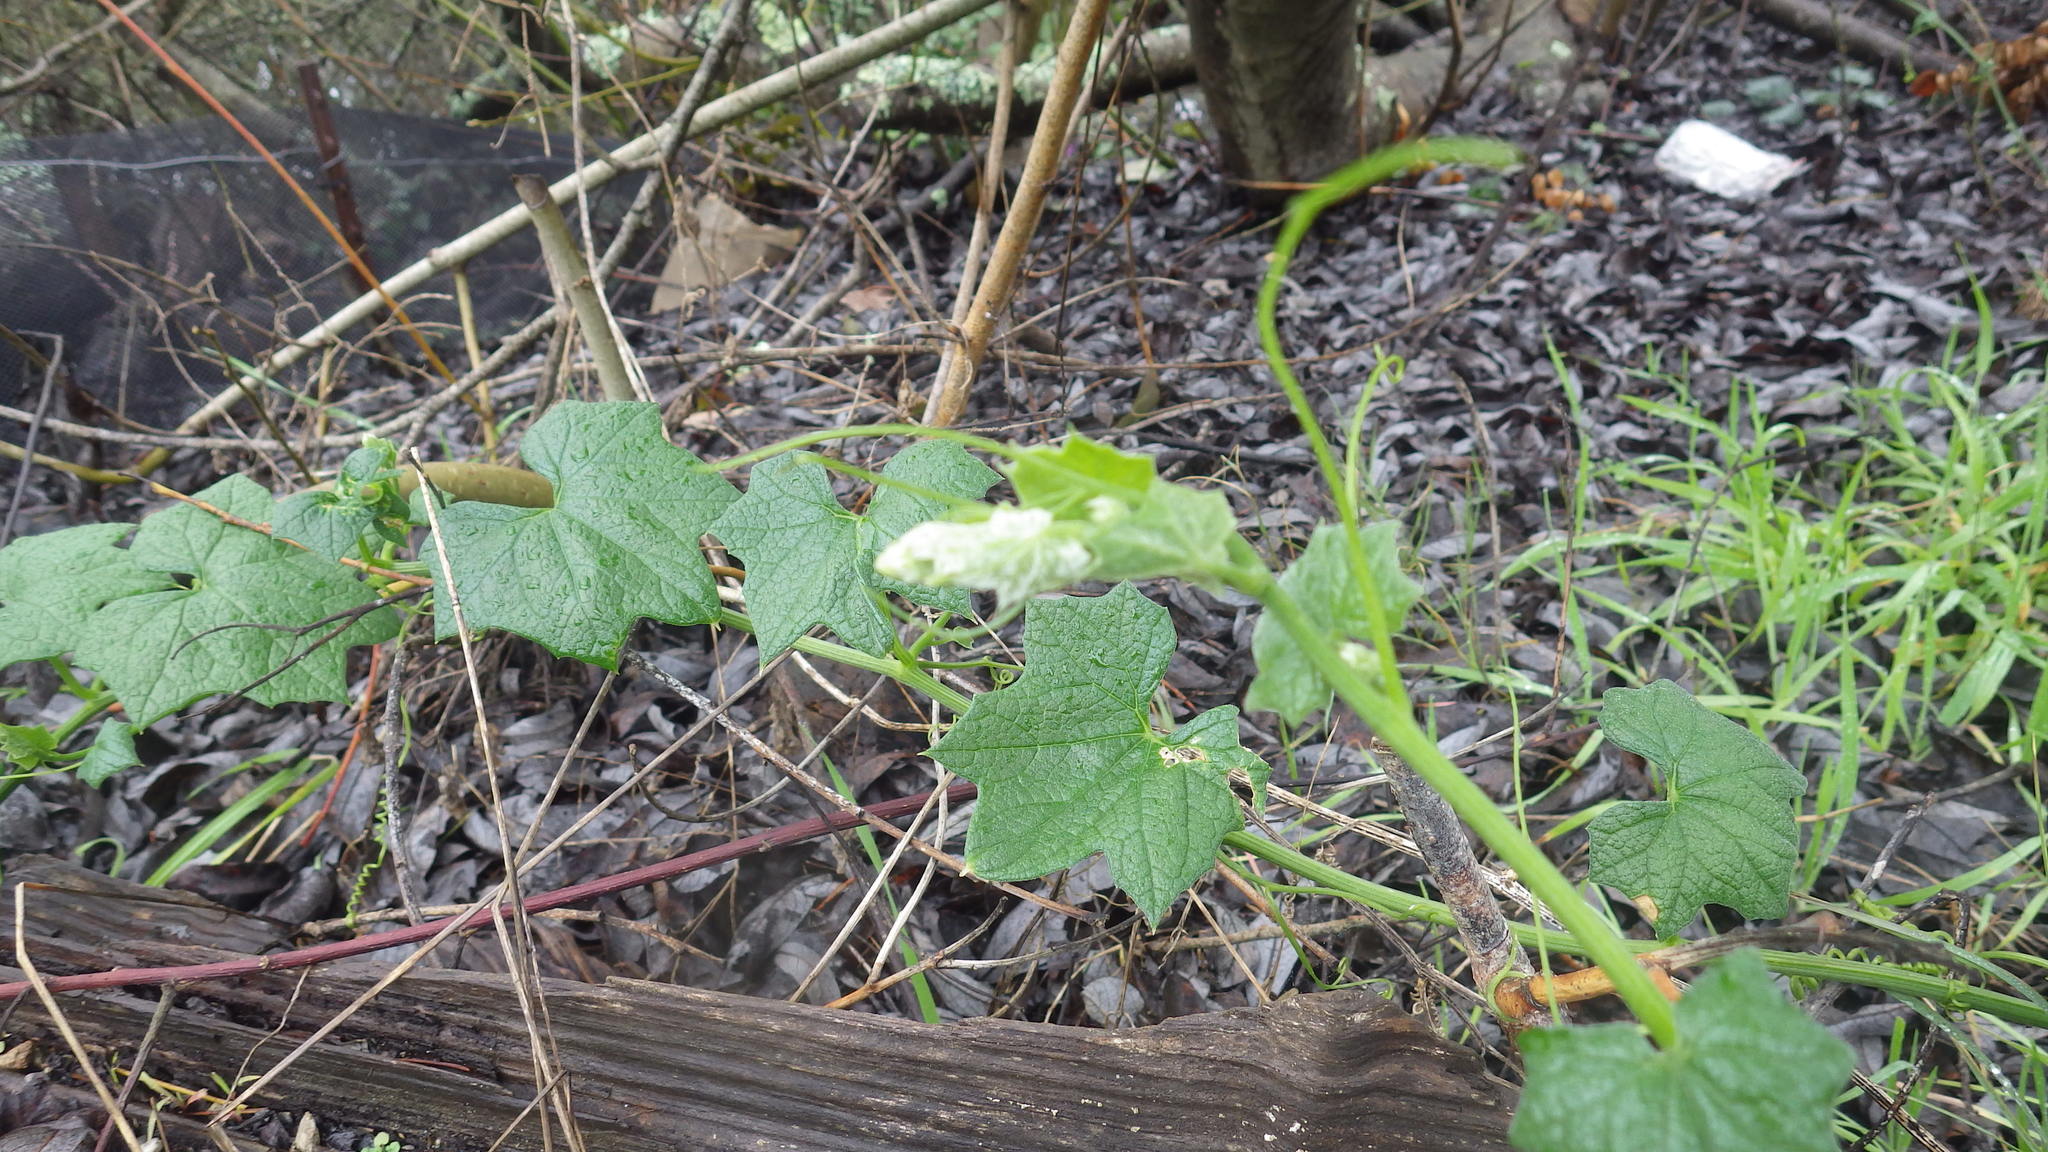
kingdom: Plantae
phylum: Tracheophyta
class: Magnoliopsida
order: Cucurbitales
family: Cucurbitaceae
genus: Marah
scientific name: Marah
